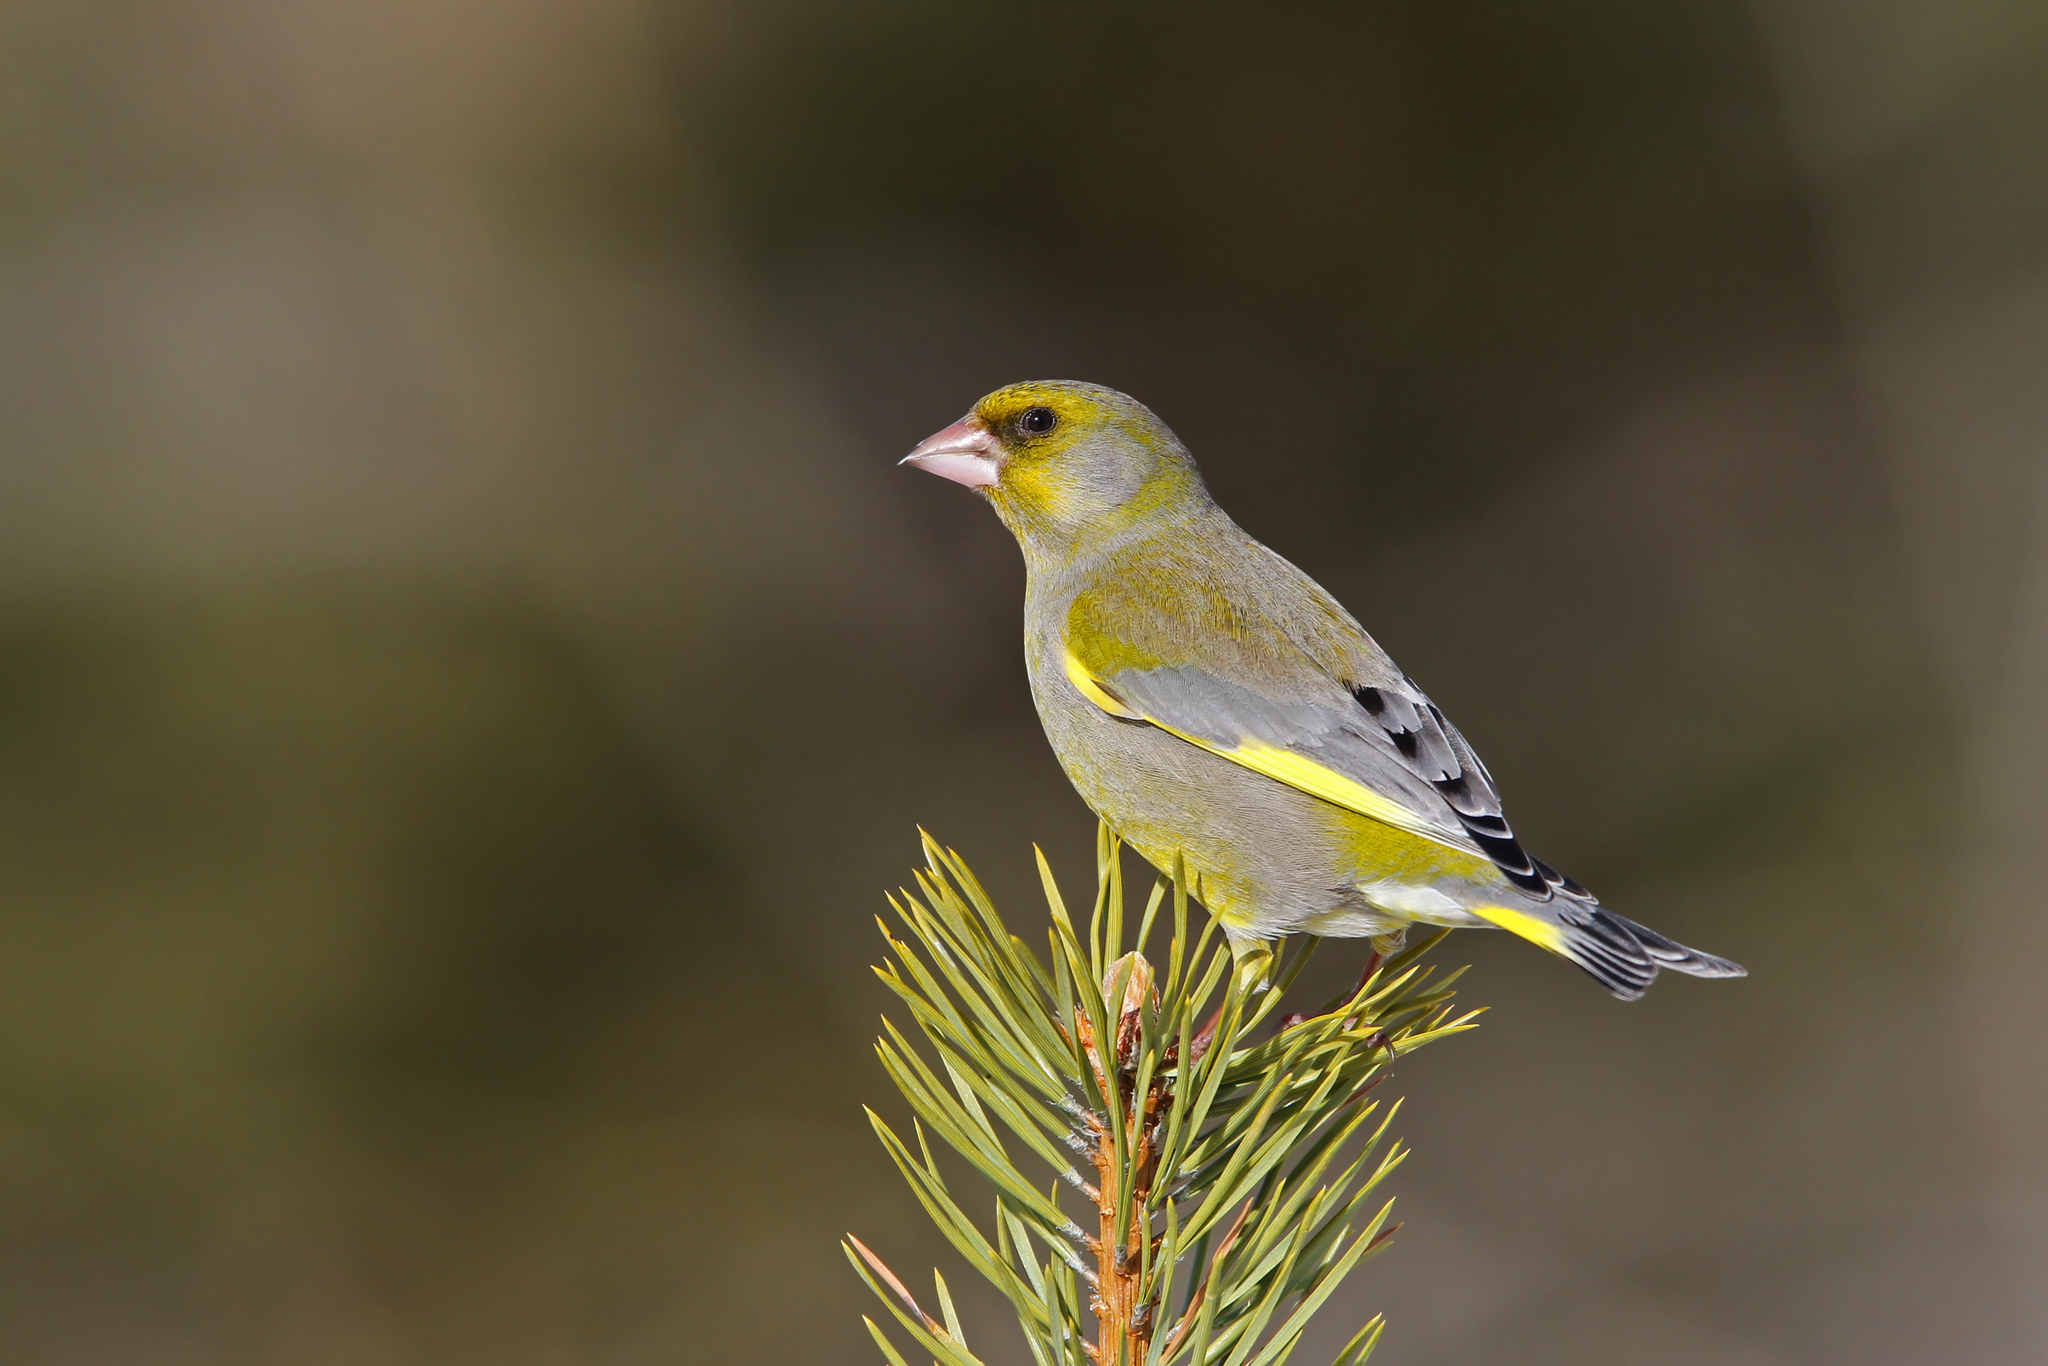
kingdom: Plantae
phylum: Tracheophyta
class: Liliopsida
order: Poales
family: Poaceae
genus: Chloris
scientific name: Chloris chloris
